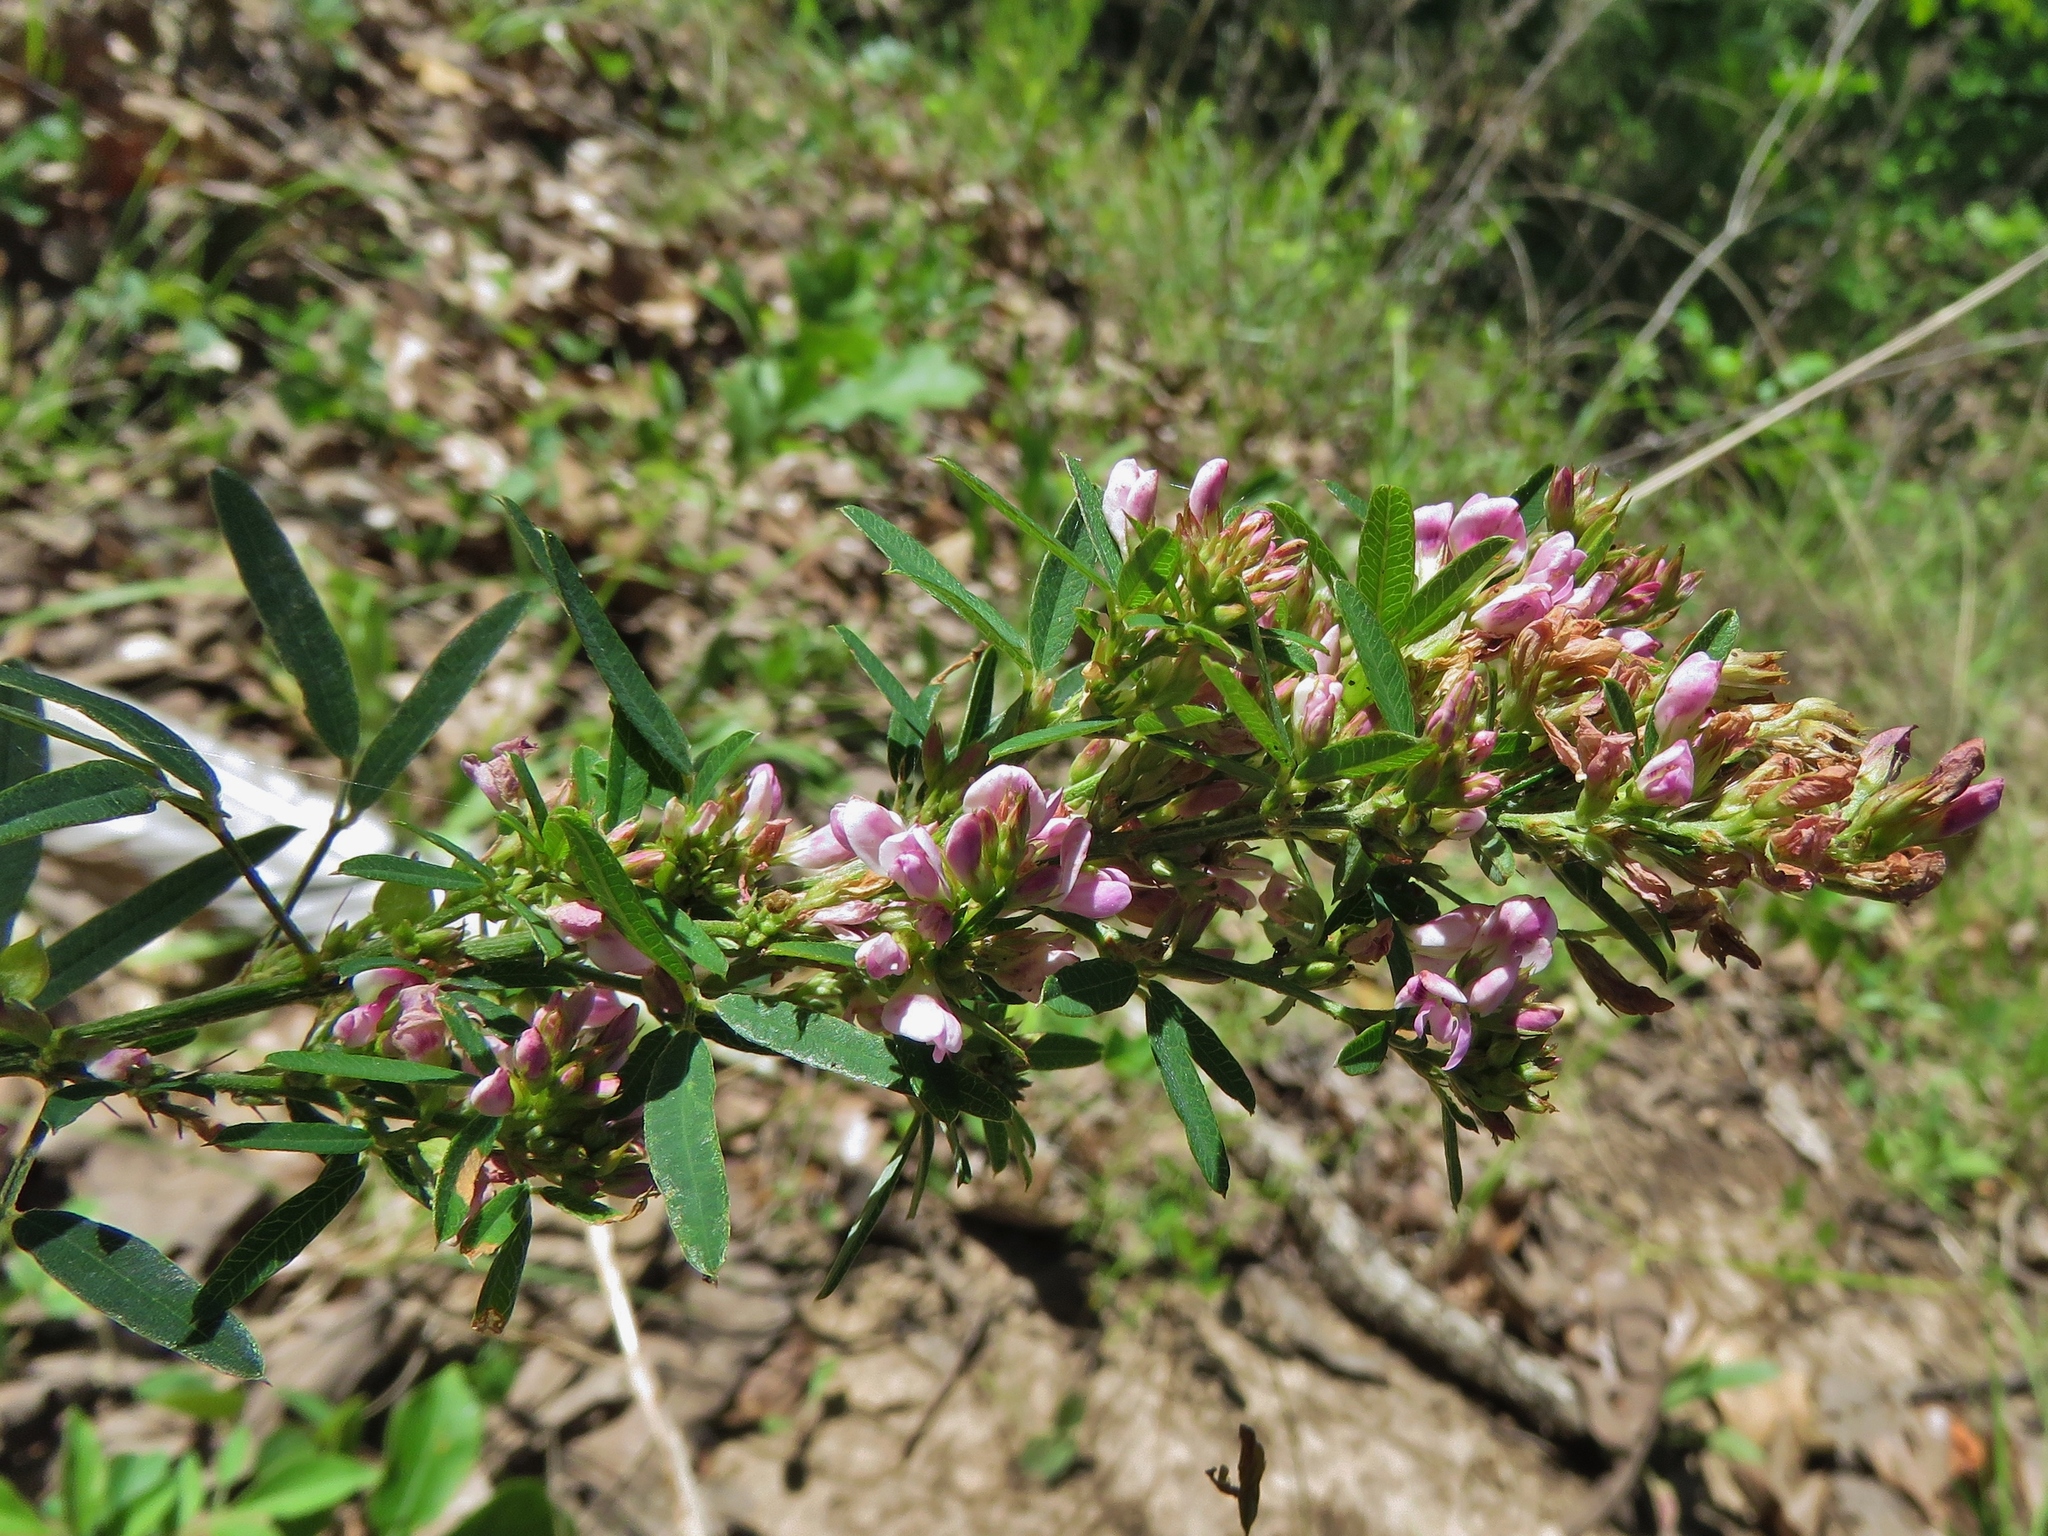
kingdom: Plantae
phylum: Tracheophyta
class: Magnoliopsida
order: Fabales
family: Fabaceae
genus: Lespedeza
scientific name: Lespedeza virginica
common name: Slender bush-clover
